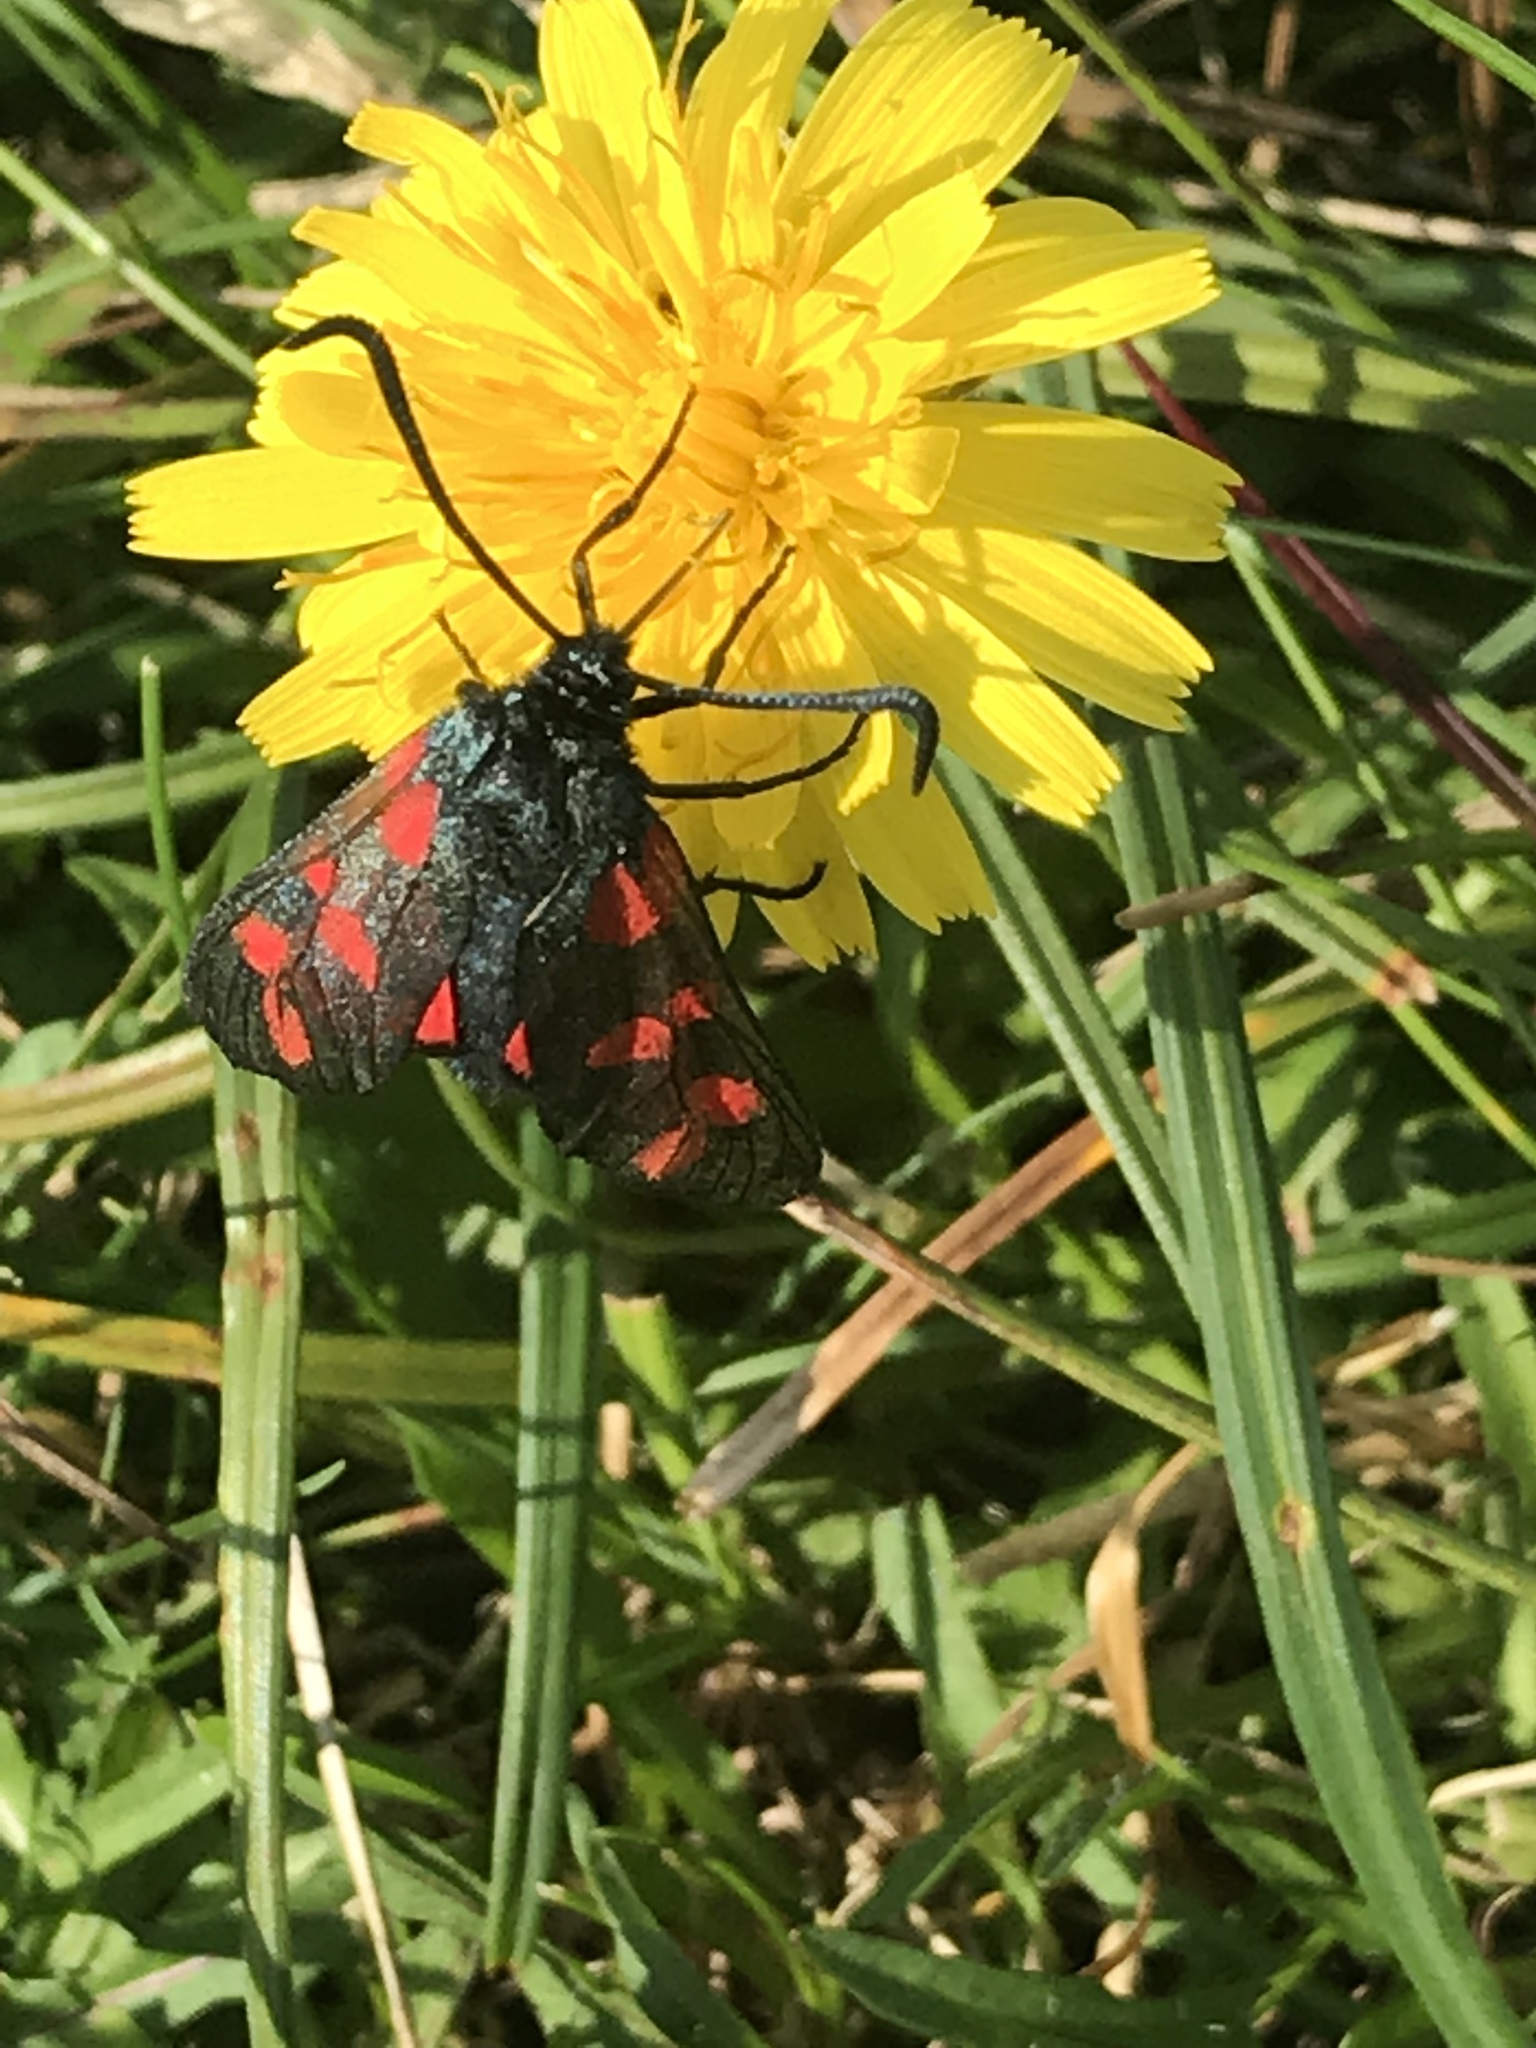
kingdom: Animalia
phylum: Arthropoda
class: Insecta
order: Lepidoptera
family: Zygaenidae
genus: Zygaena
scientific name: Zygaena filipendulae
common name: Six-spot burnet
